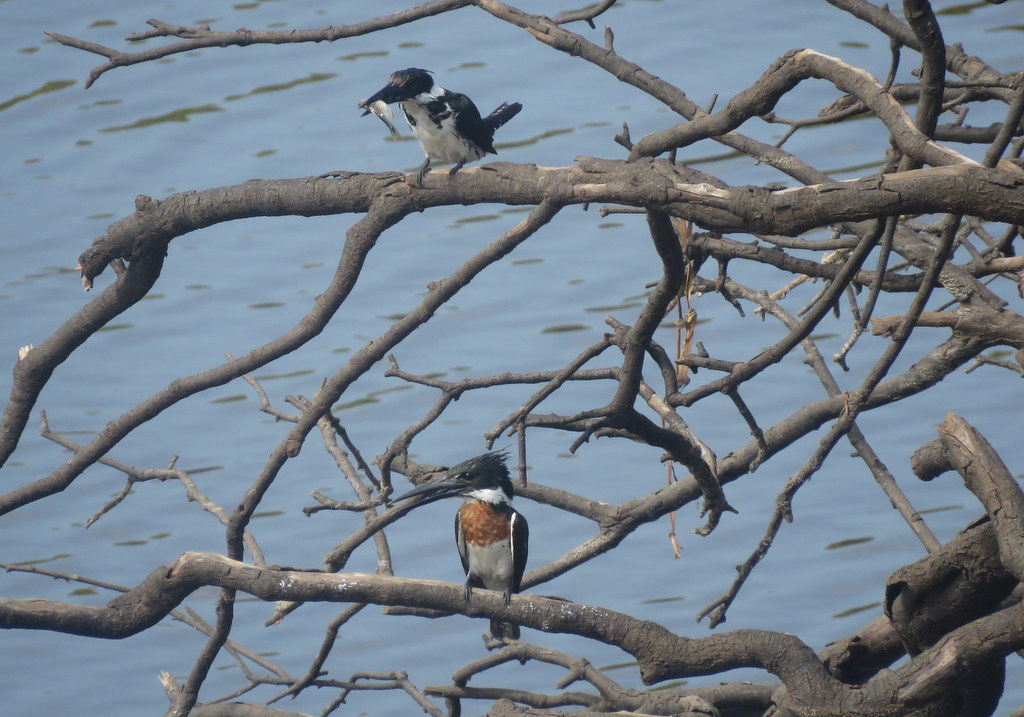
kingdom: Animalia
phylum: Chordata
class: Aves
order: Coraciiformes
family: Alcedinidae
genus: Chloroceryle
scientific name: Chloroceryle amazona
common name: Amazon kingfisher
